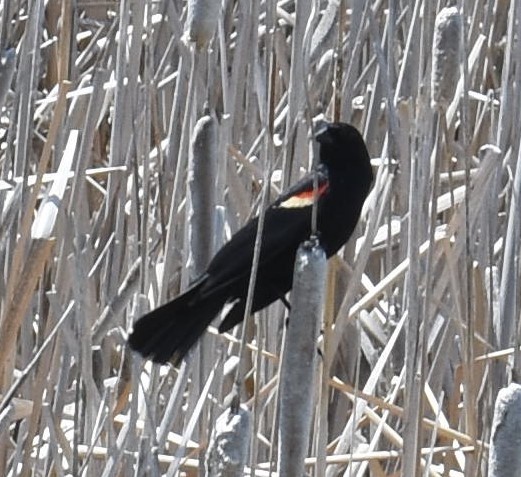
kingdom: Animalia
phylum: Chordata
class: Aves
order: Passeriformes
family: Icteridae
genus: Agelaius
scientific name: Agelaius phoeniceus
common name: Red-winged blackbird
